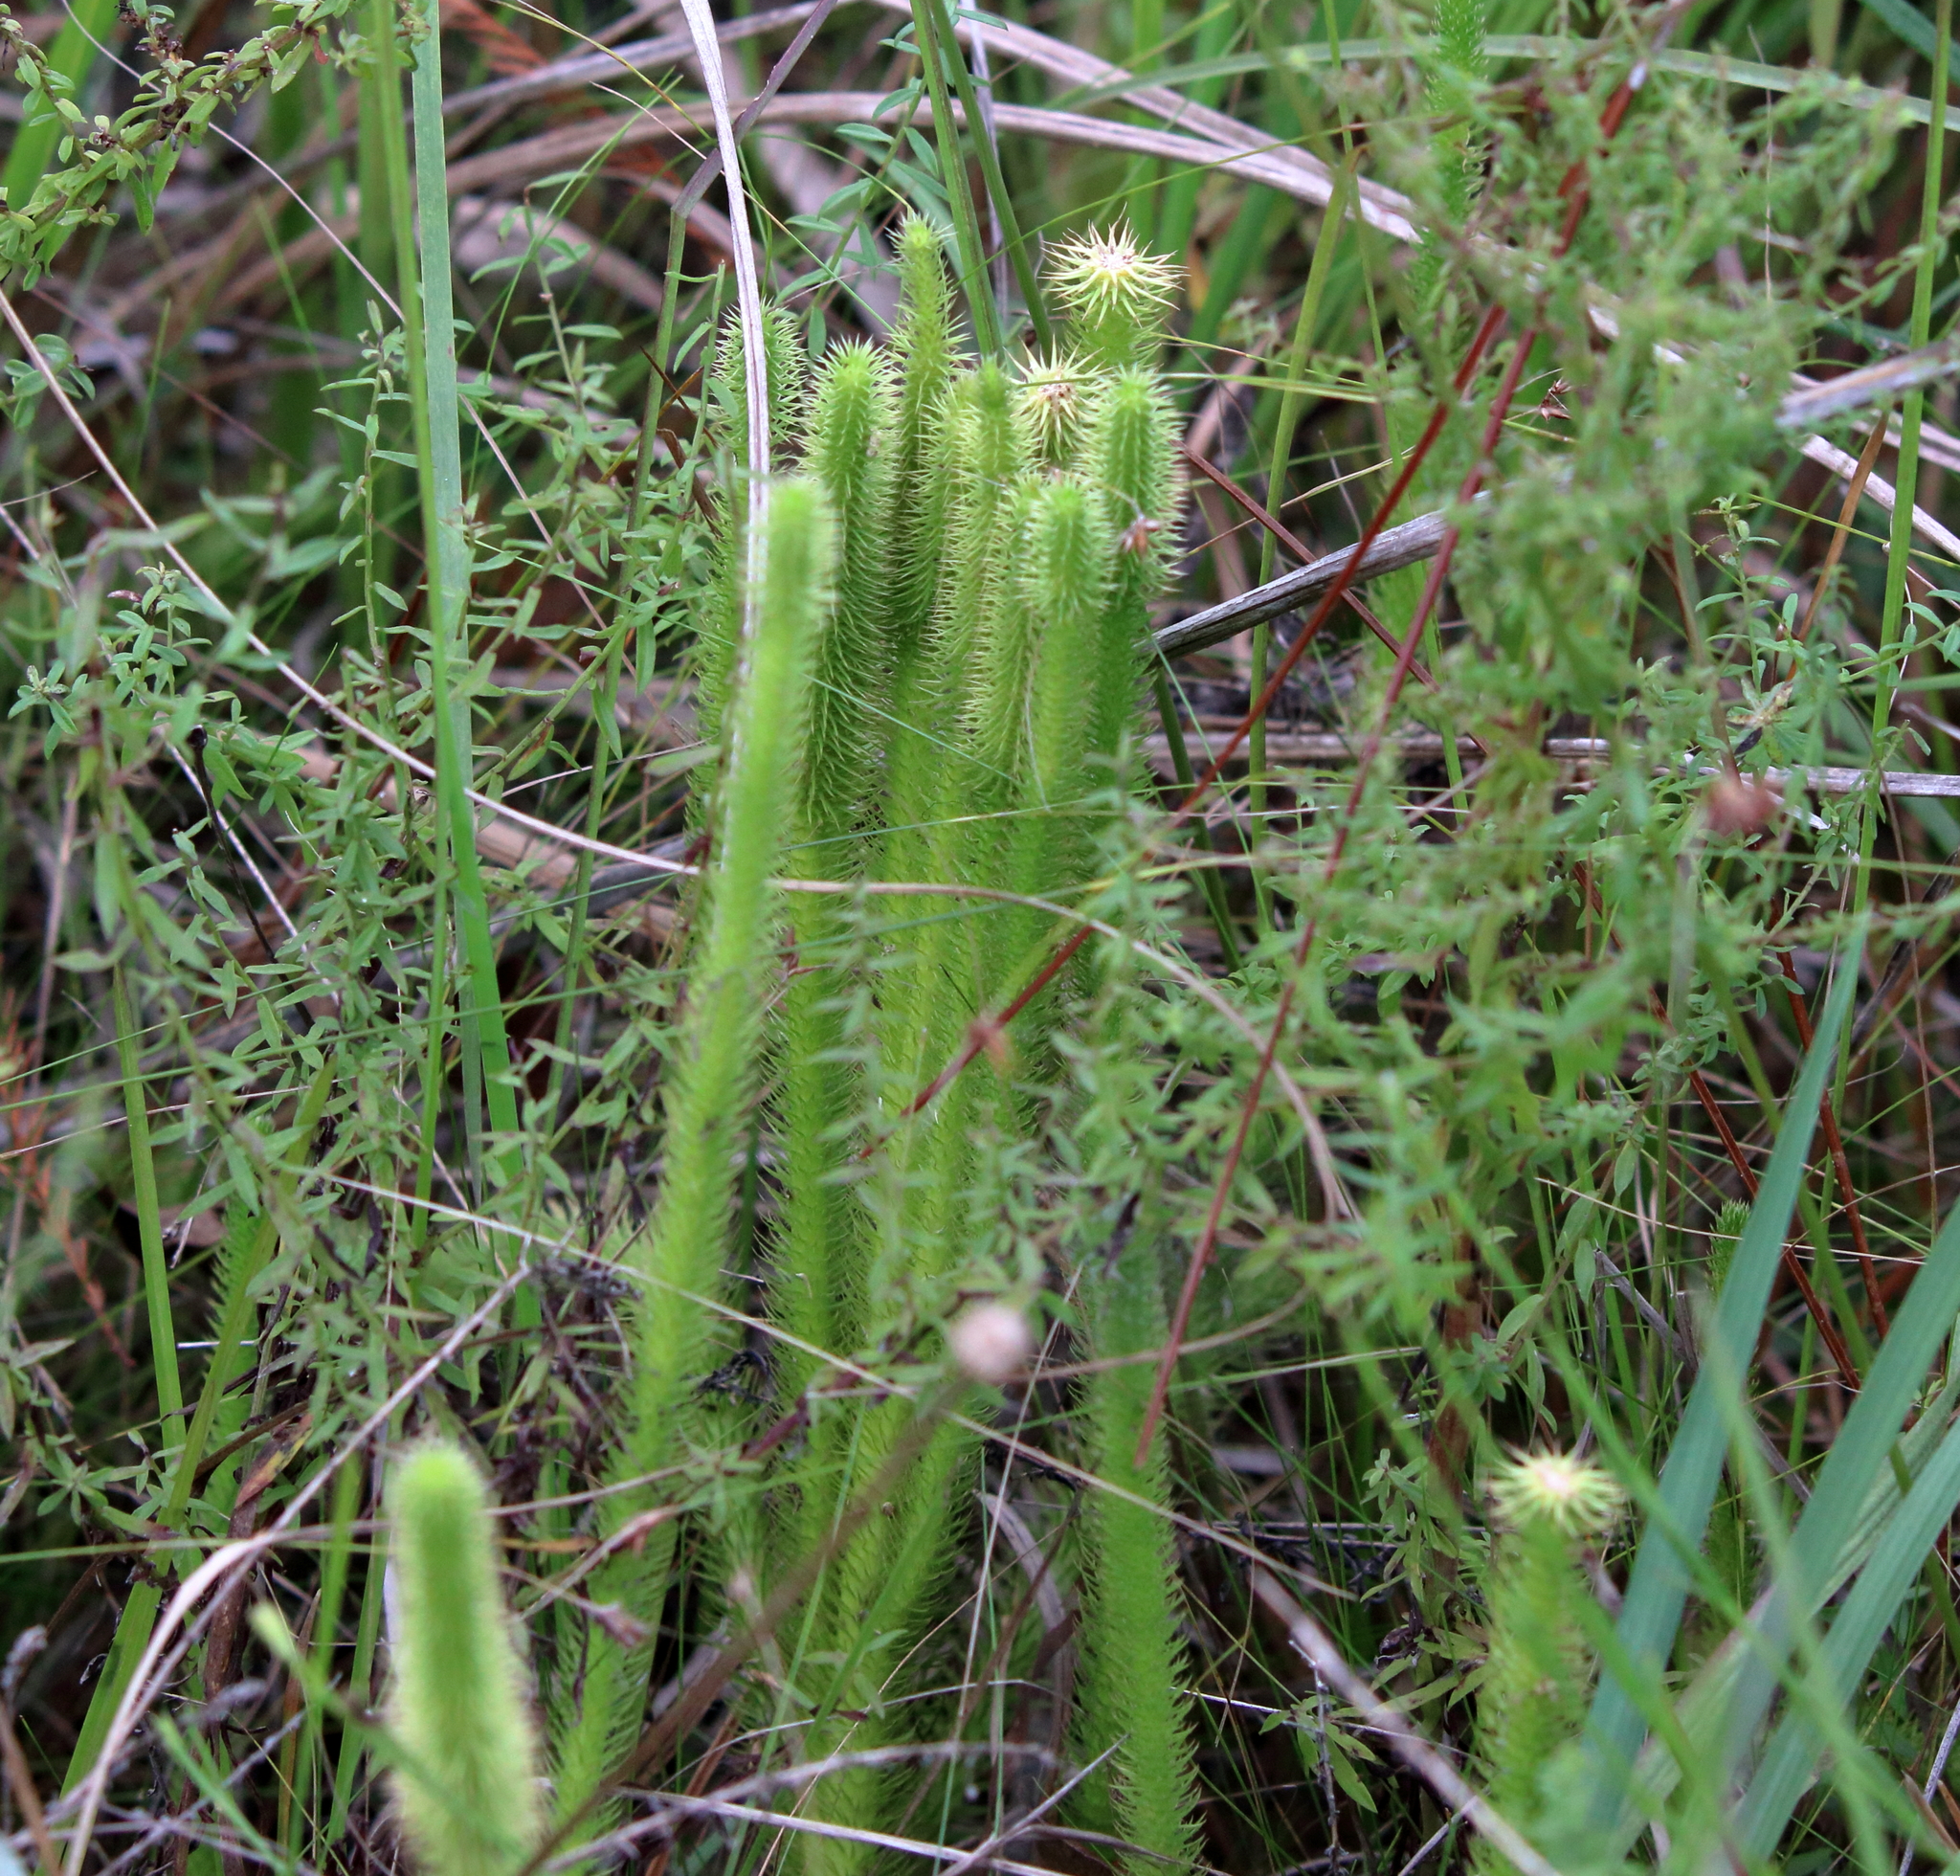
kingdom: Plantae
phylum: Tracheophyta
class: Lycopodiopsida
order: Lycopodiales
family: Lycopodiaceae
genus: Lycopodiella
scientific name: Lycopodiella alopecuroides
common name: Foxtail clubmoss
